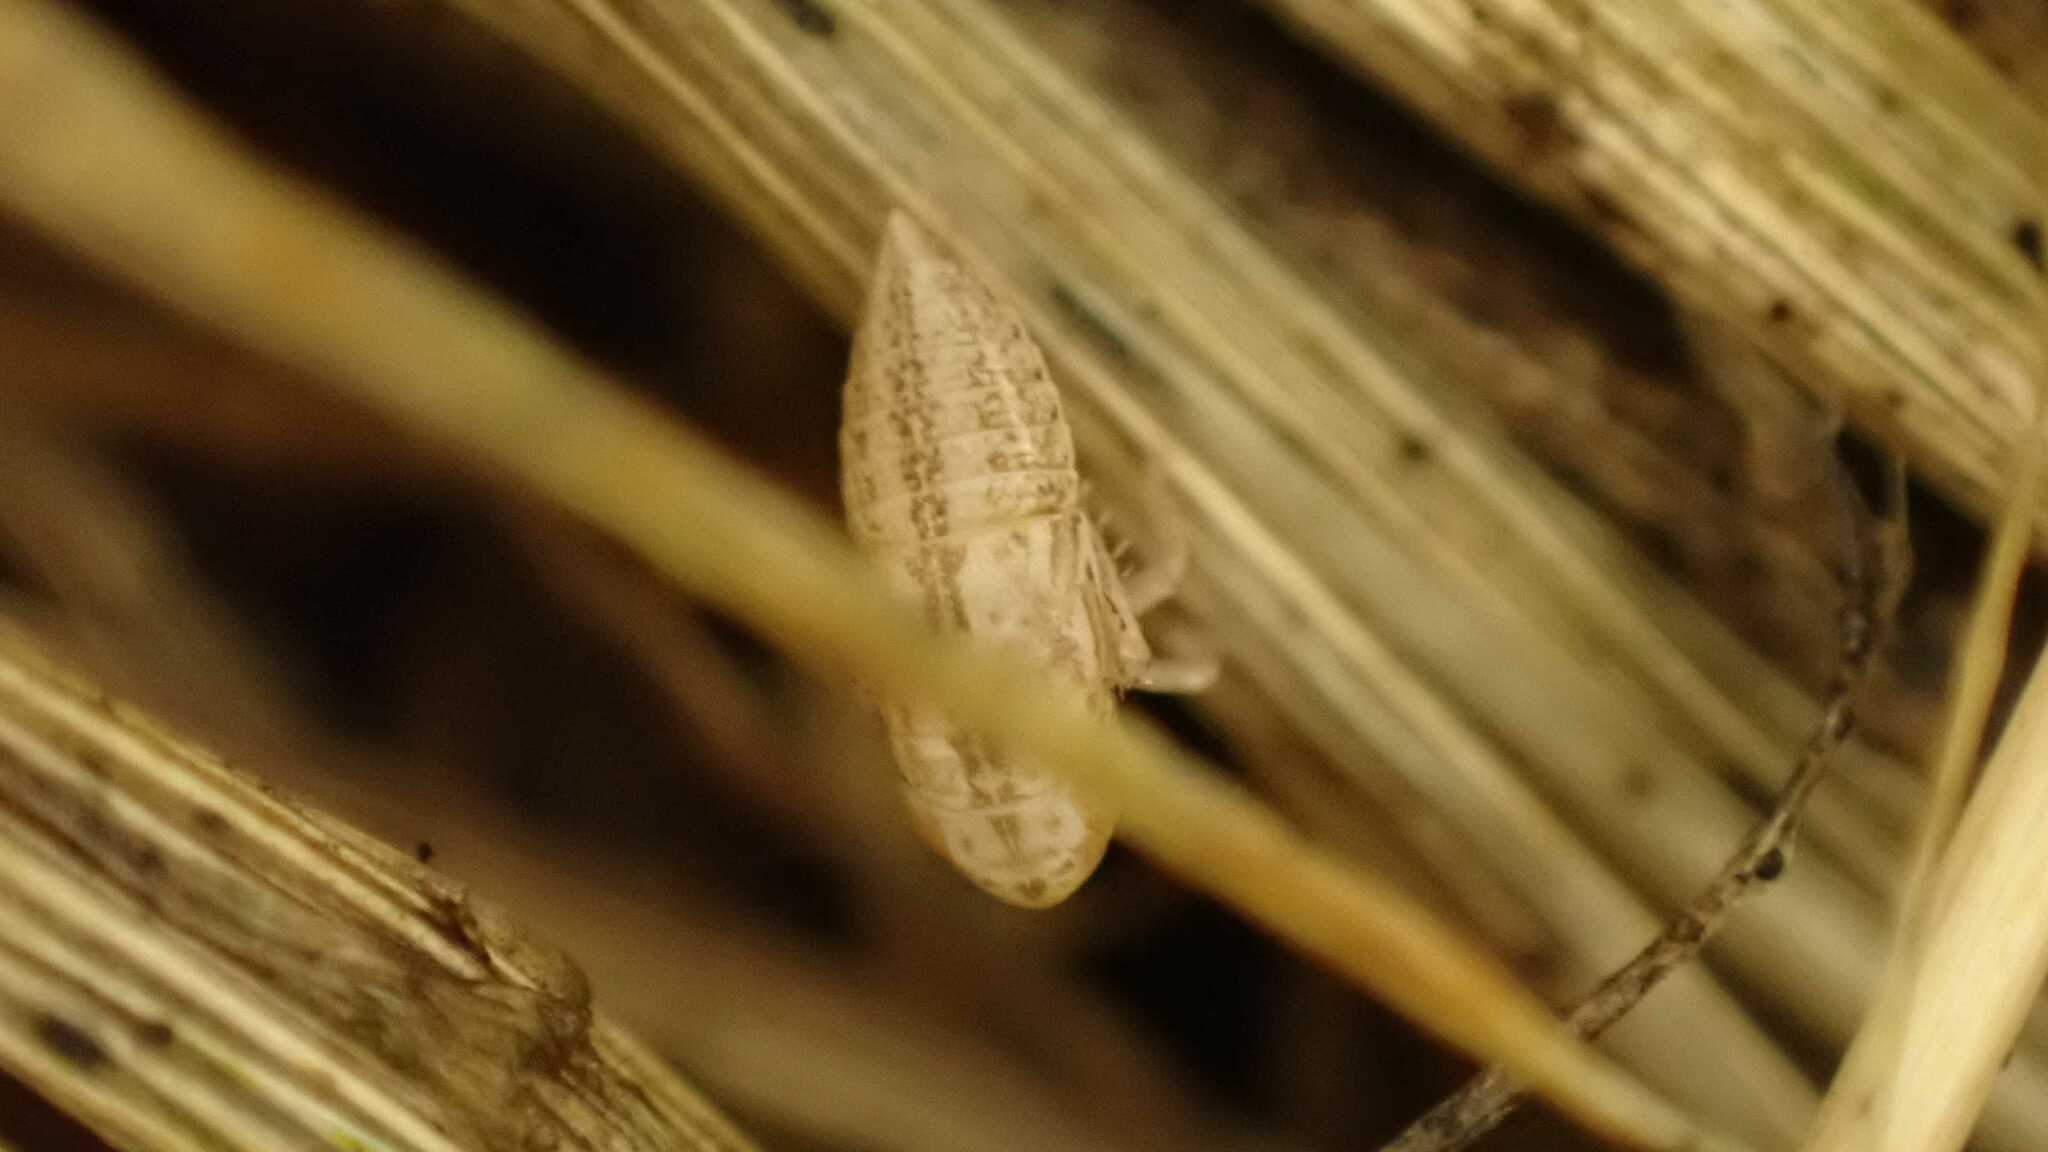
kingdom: Animalia
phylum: Arthropoda
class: Insecta
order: Hemiptera
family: Cicadellidae
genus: Speudotettix
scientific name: Speudotettix subfusculus
